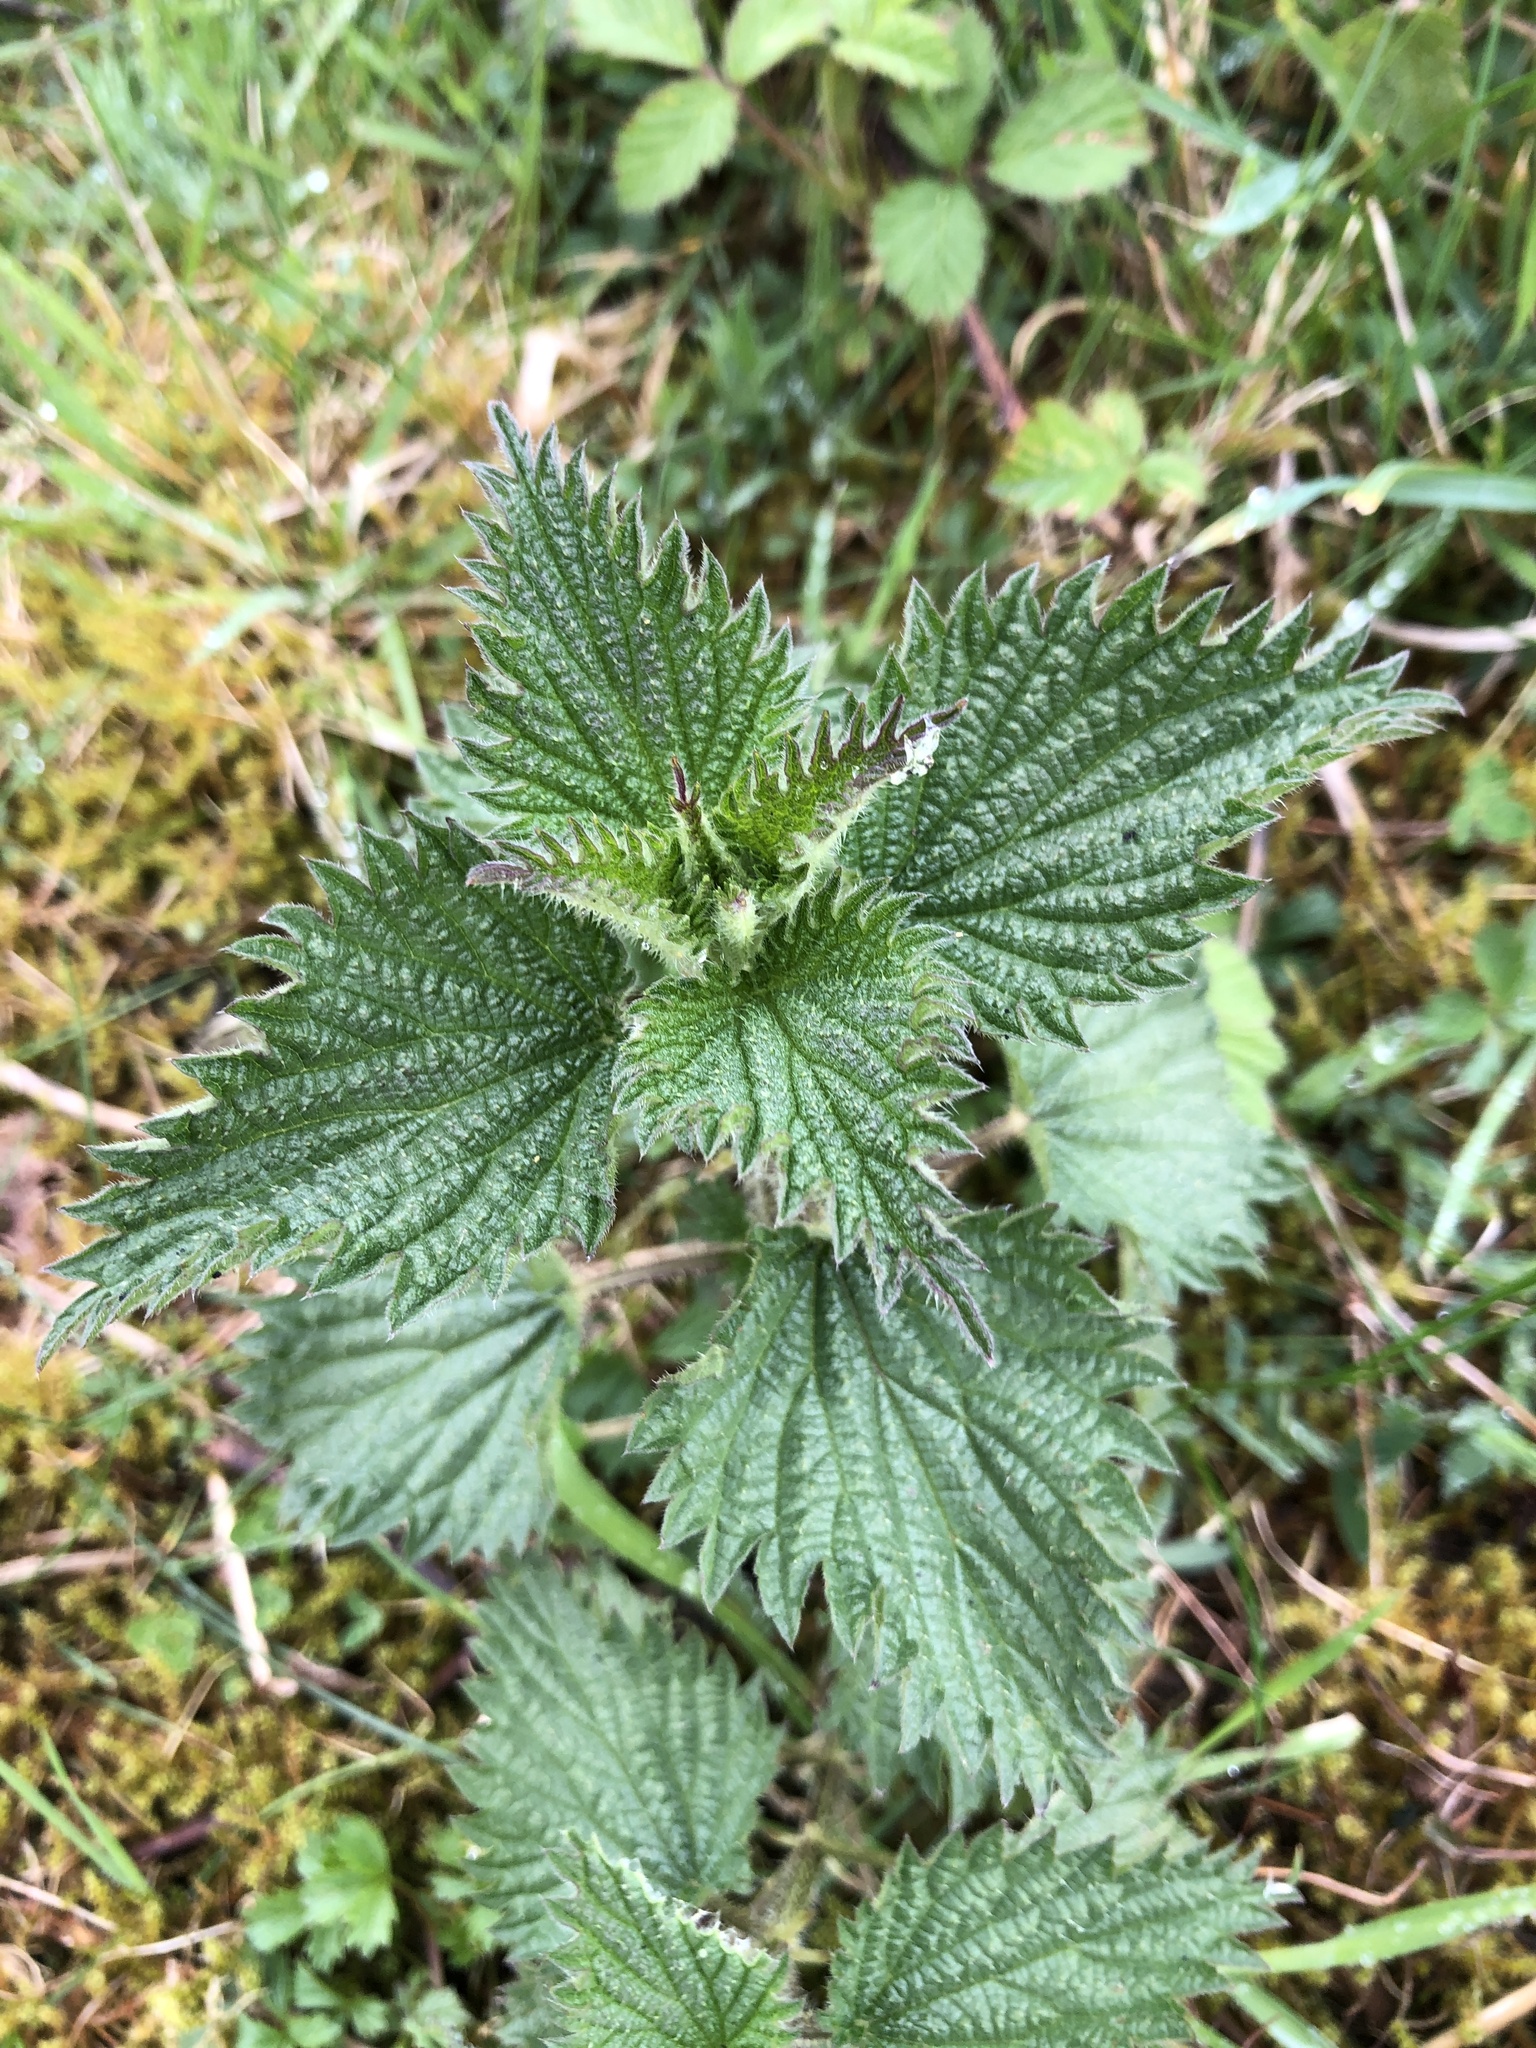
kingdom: Plantae
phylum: Tracheophyta
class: Magnoliopsida
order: Rosales
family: Urticaceae
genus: Urtica
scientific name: Urtica dioica
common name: Common nettle
